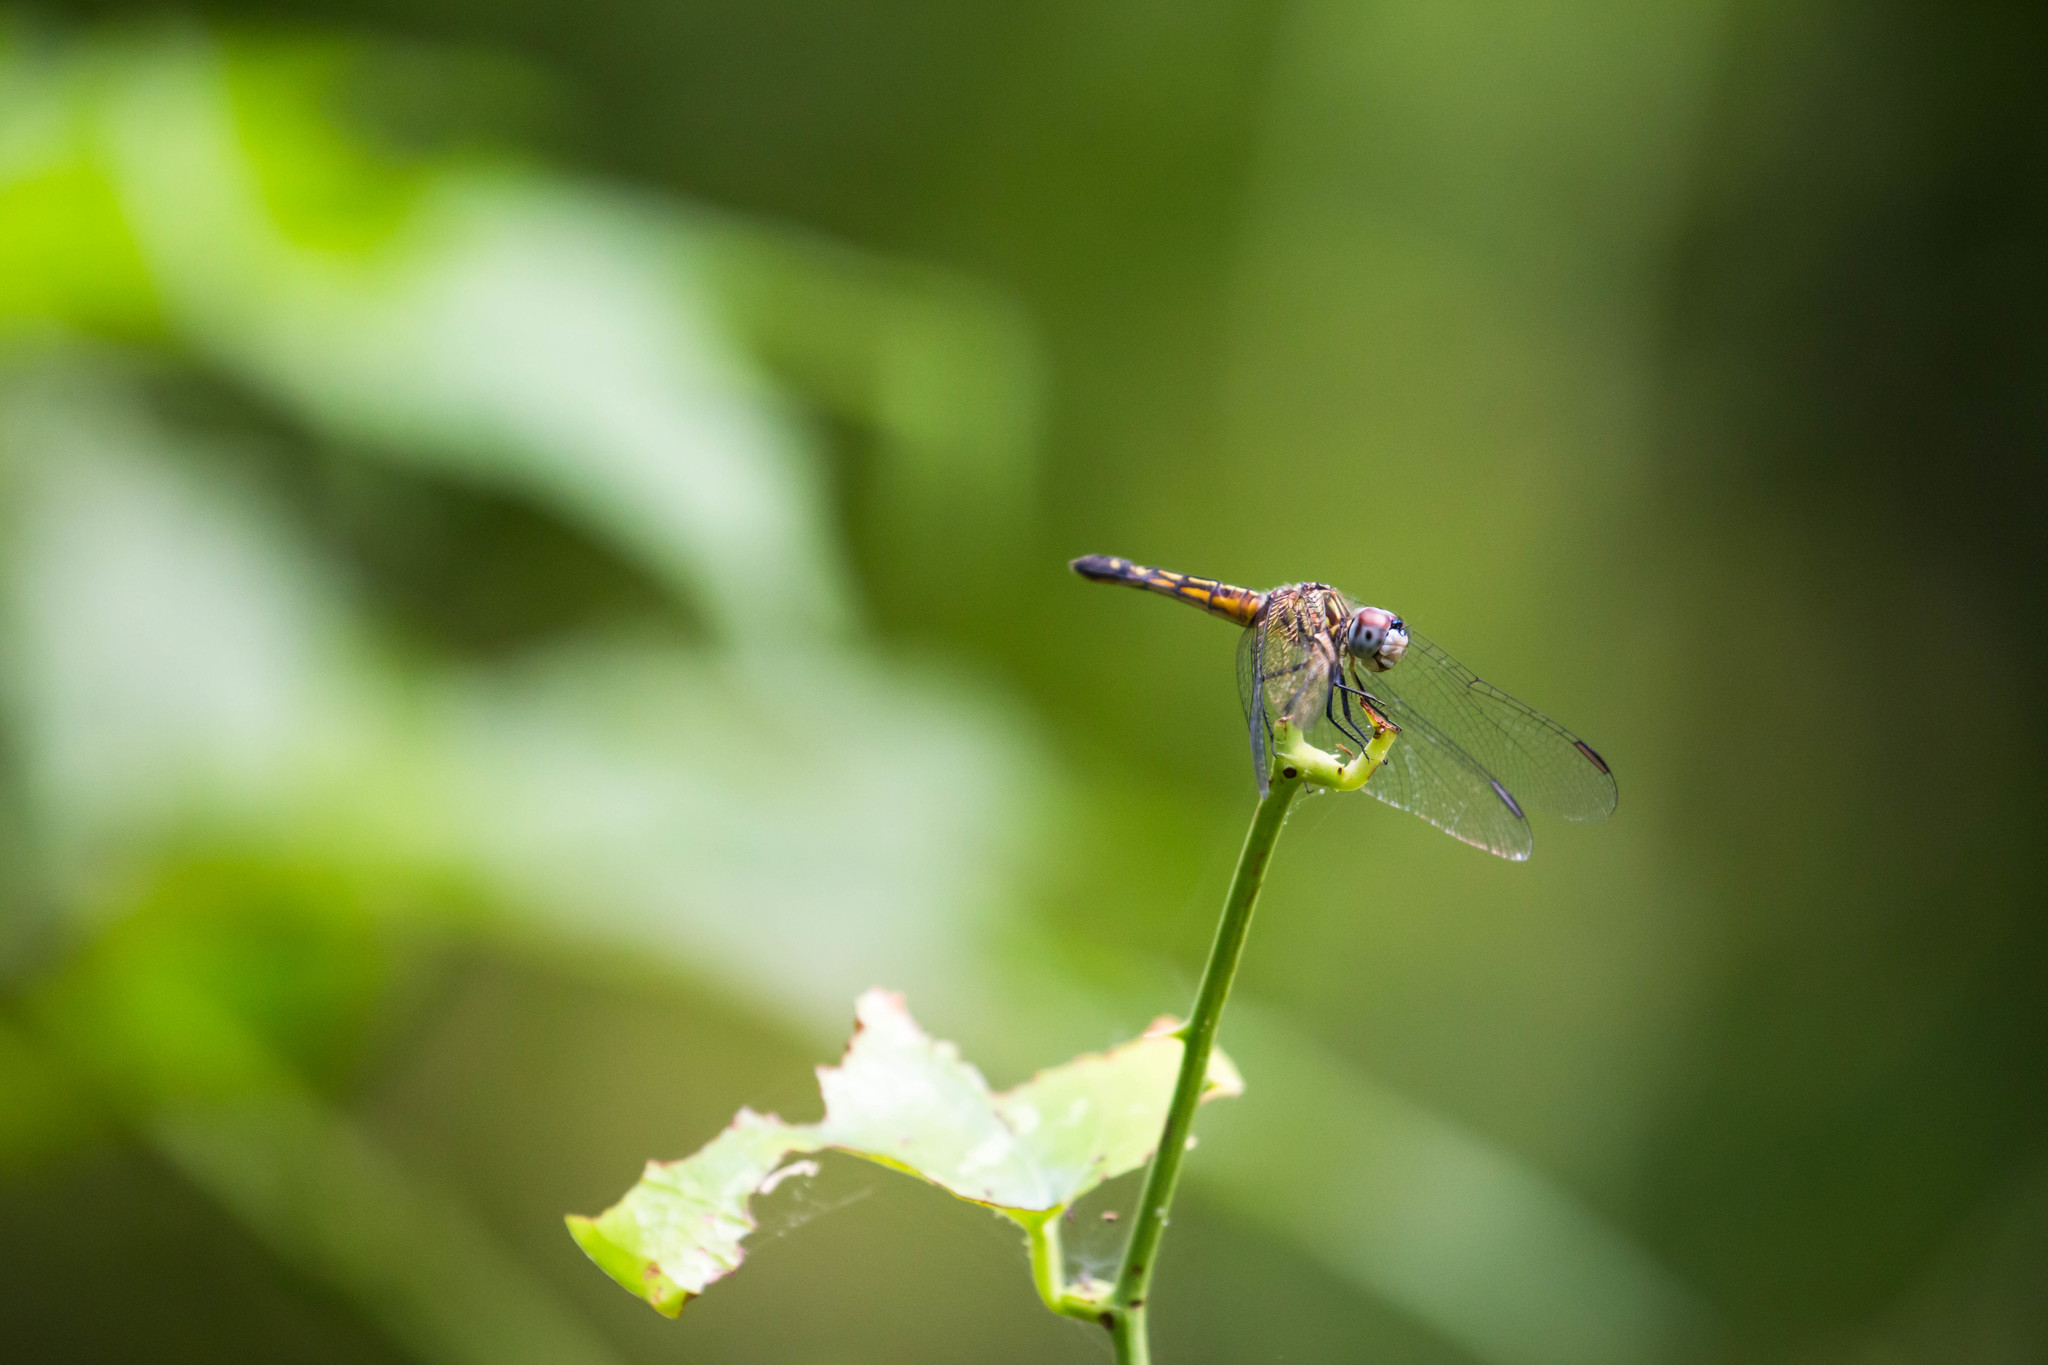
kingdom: Animalia
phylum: Arthropoda
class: Insecta
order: Odonata
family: Libellulidae
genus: Pachydiplax
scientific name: Pachydiplax longipennis
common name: Blue dasher
